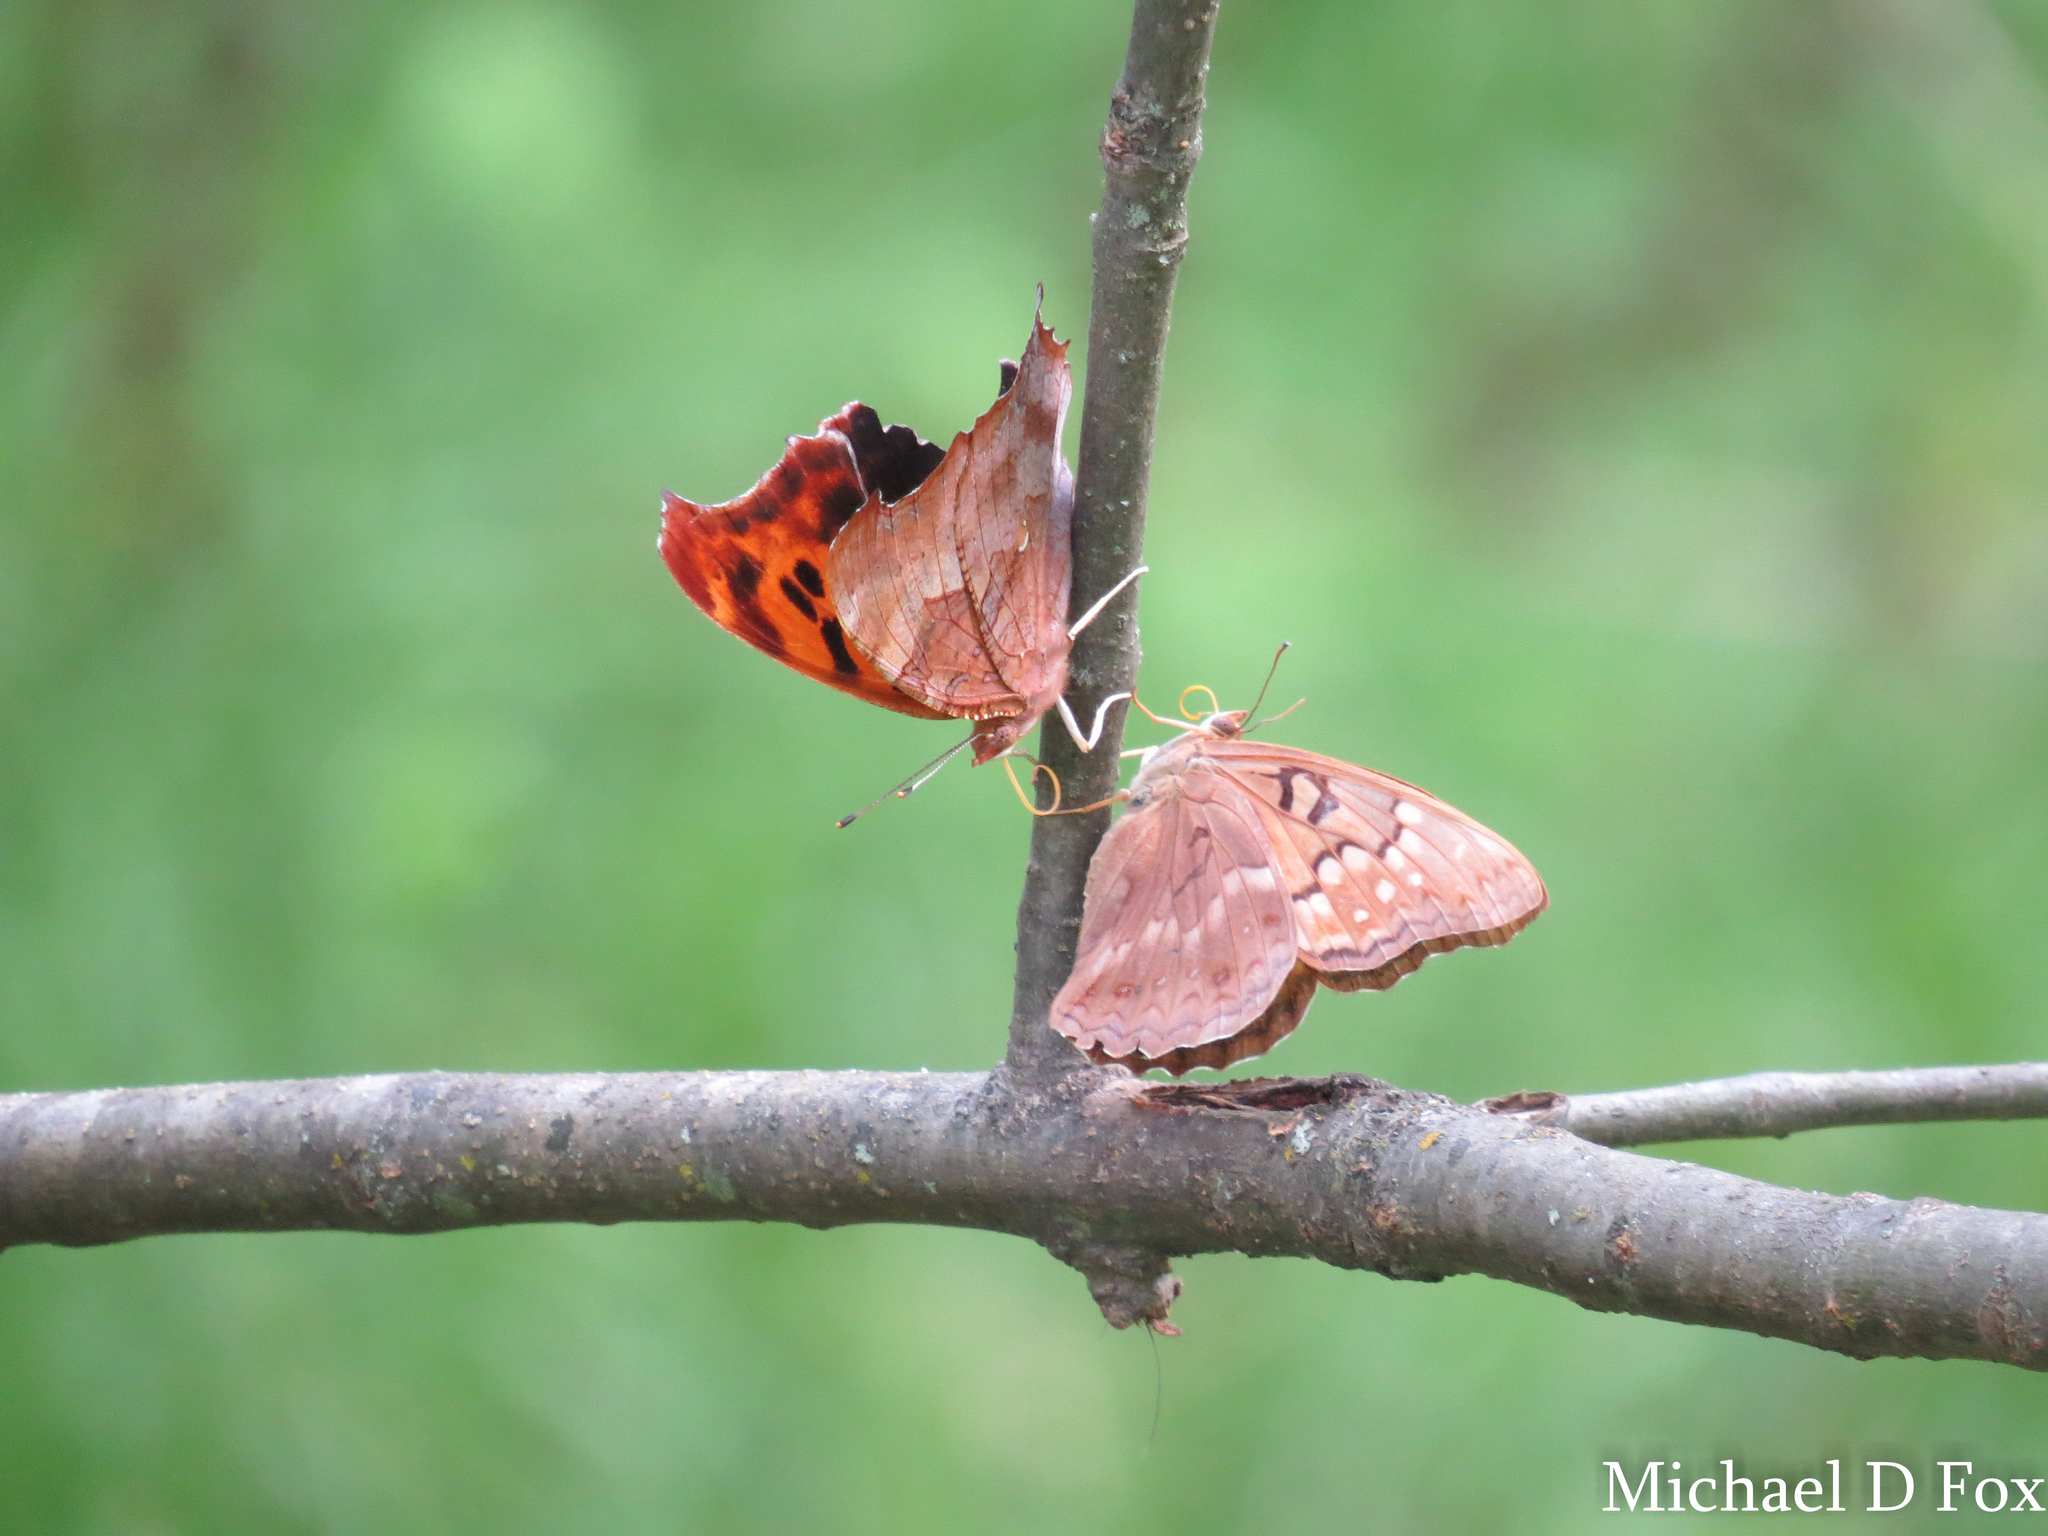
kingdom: Animalia
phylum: Arthropoda
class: Insecta
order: Lepidoptera
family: Nymphalidae
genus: Polygonia
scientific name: Polygonia interrogationis
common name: Question mark
